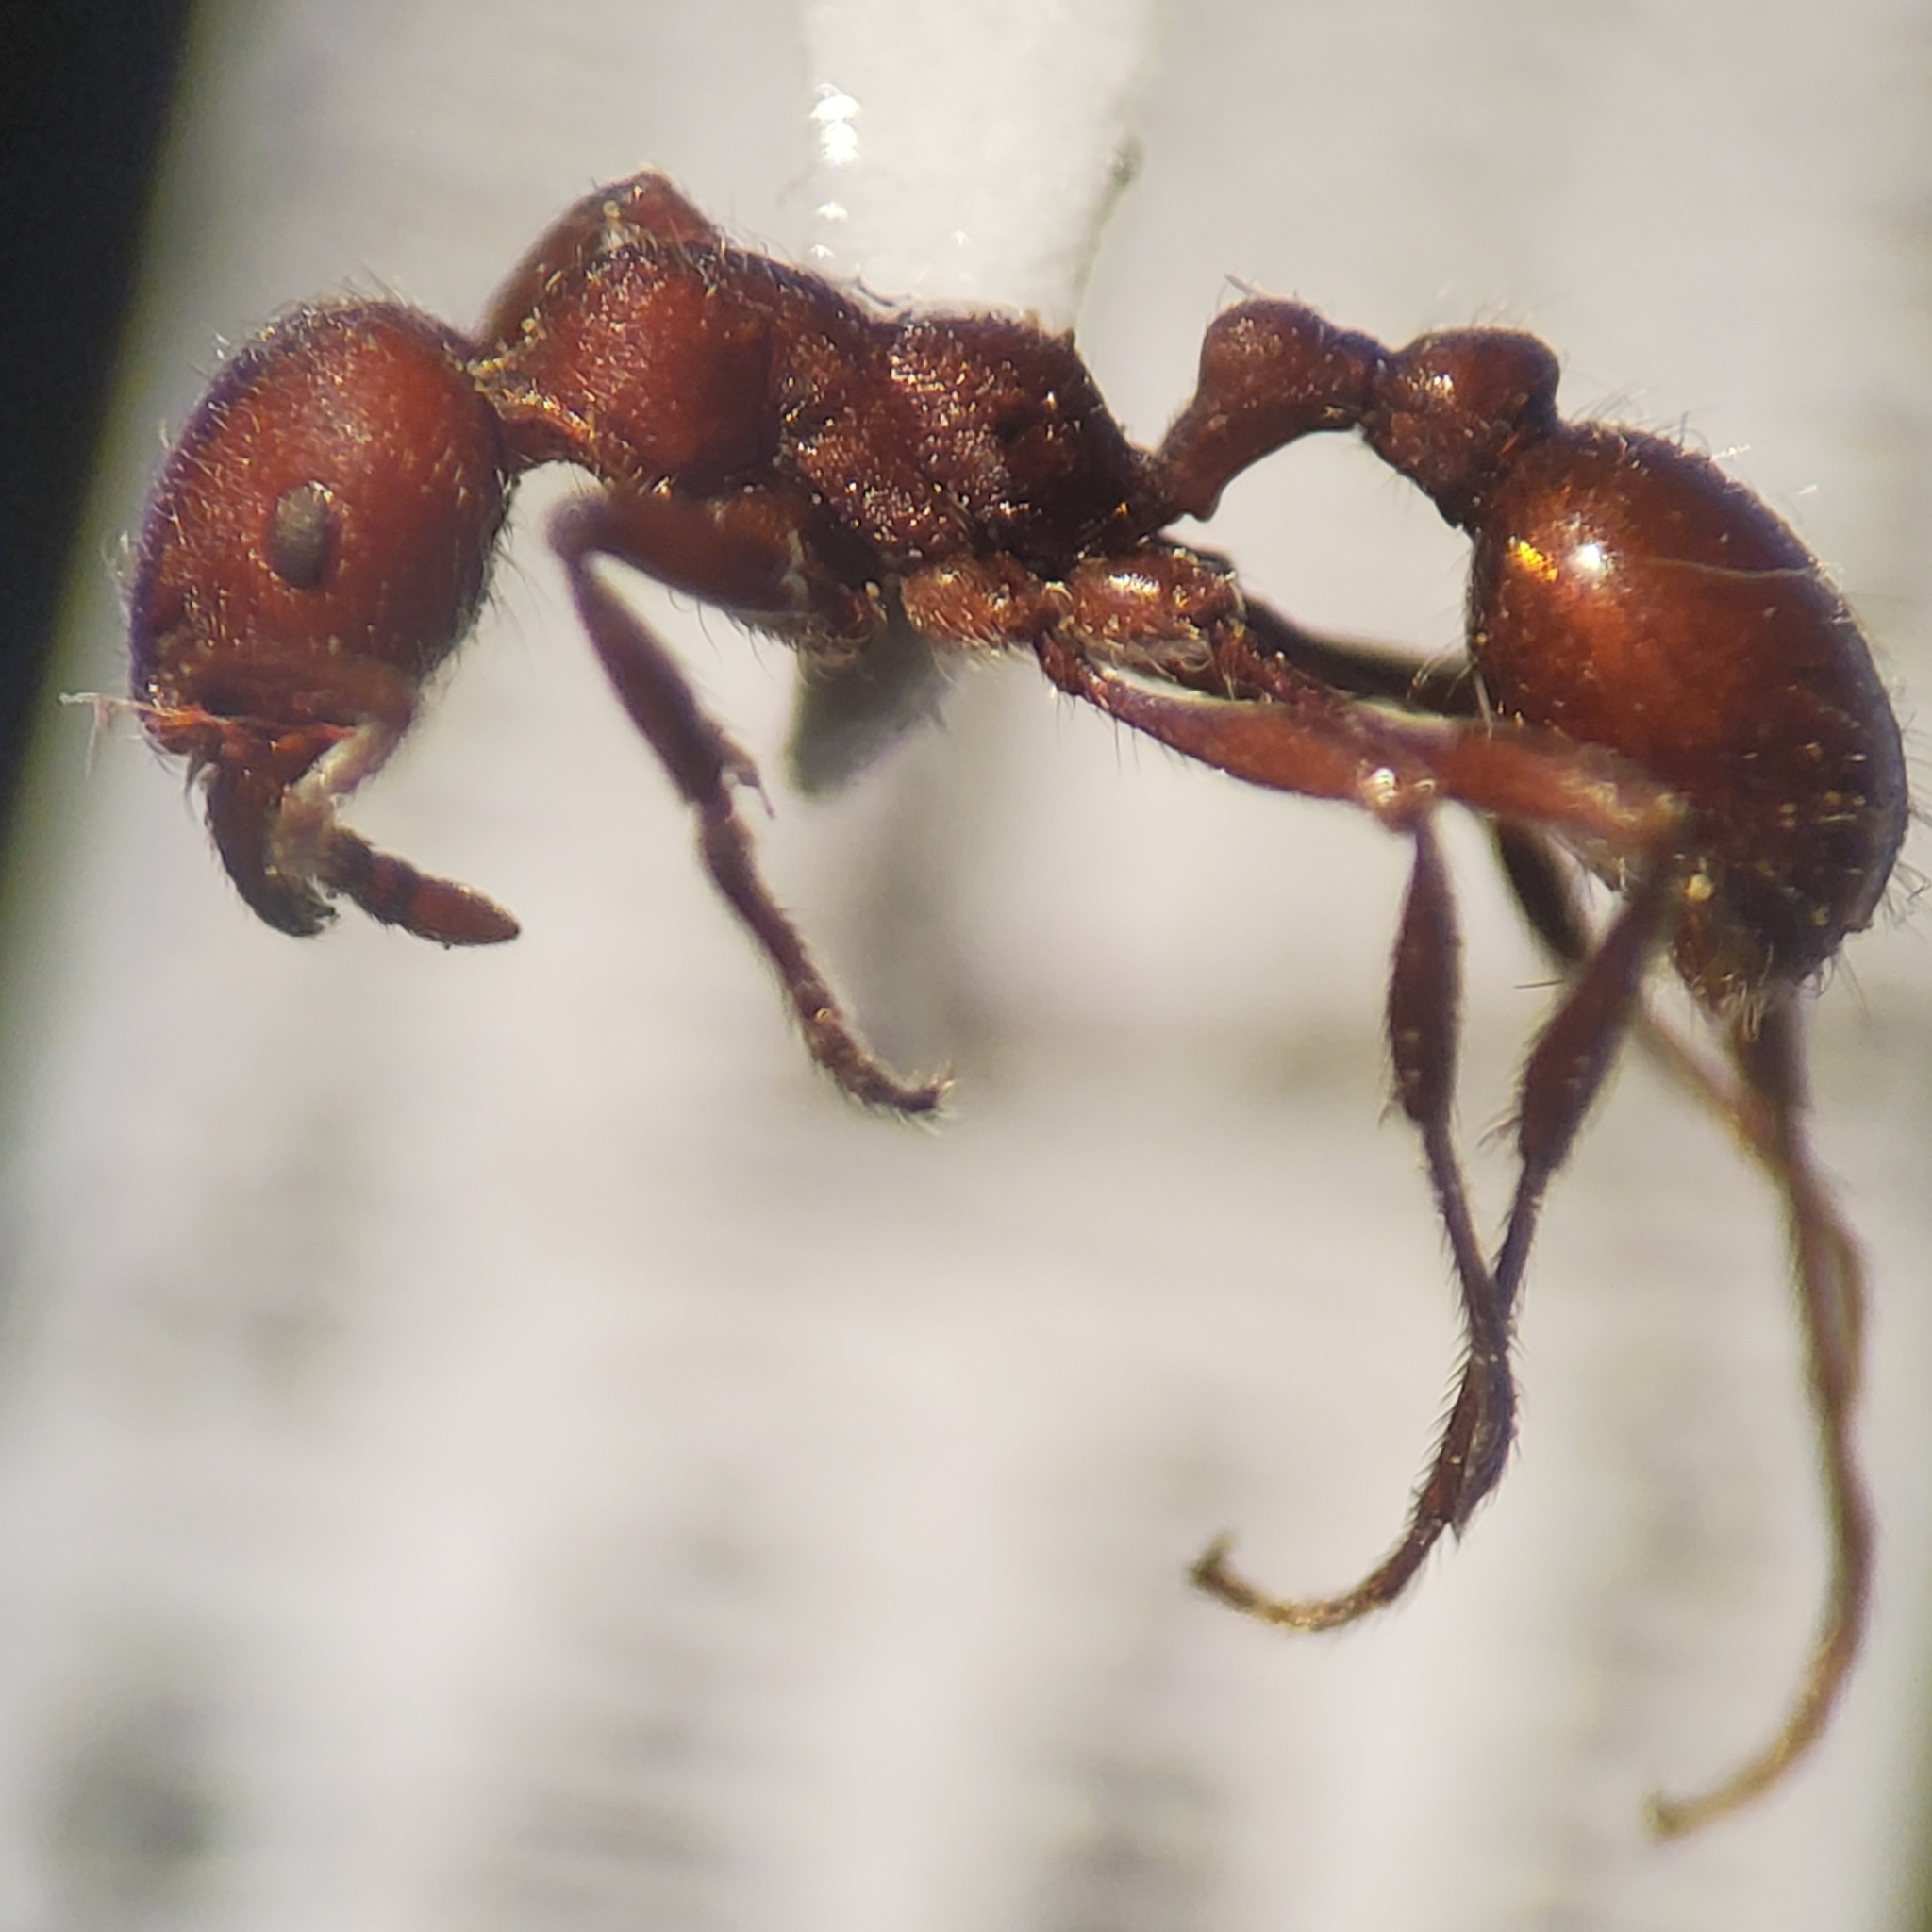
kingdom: Animalia
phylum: Arthropoda
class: Insecta
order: Hymenoptera
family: Formicidae
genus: Manica
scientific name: Manica invidia
